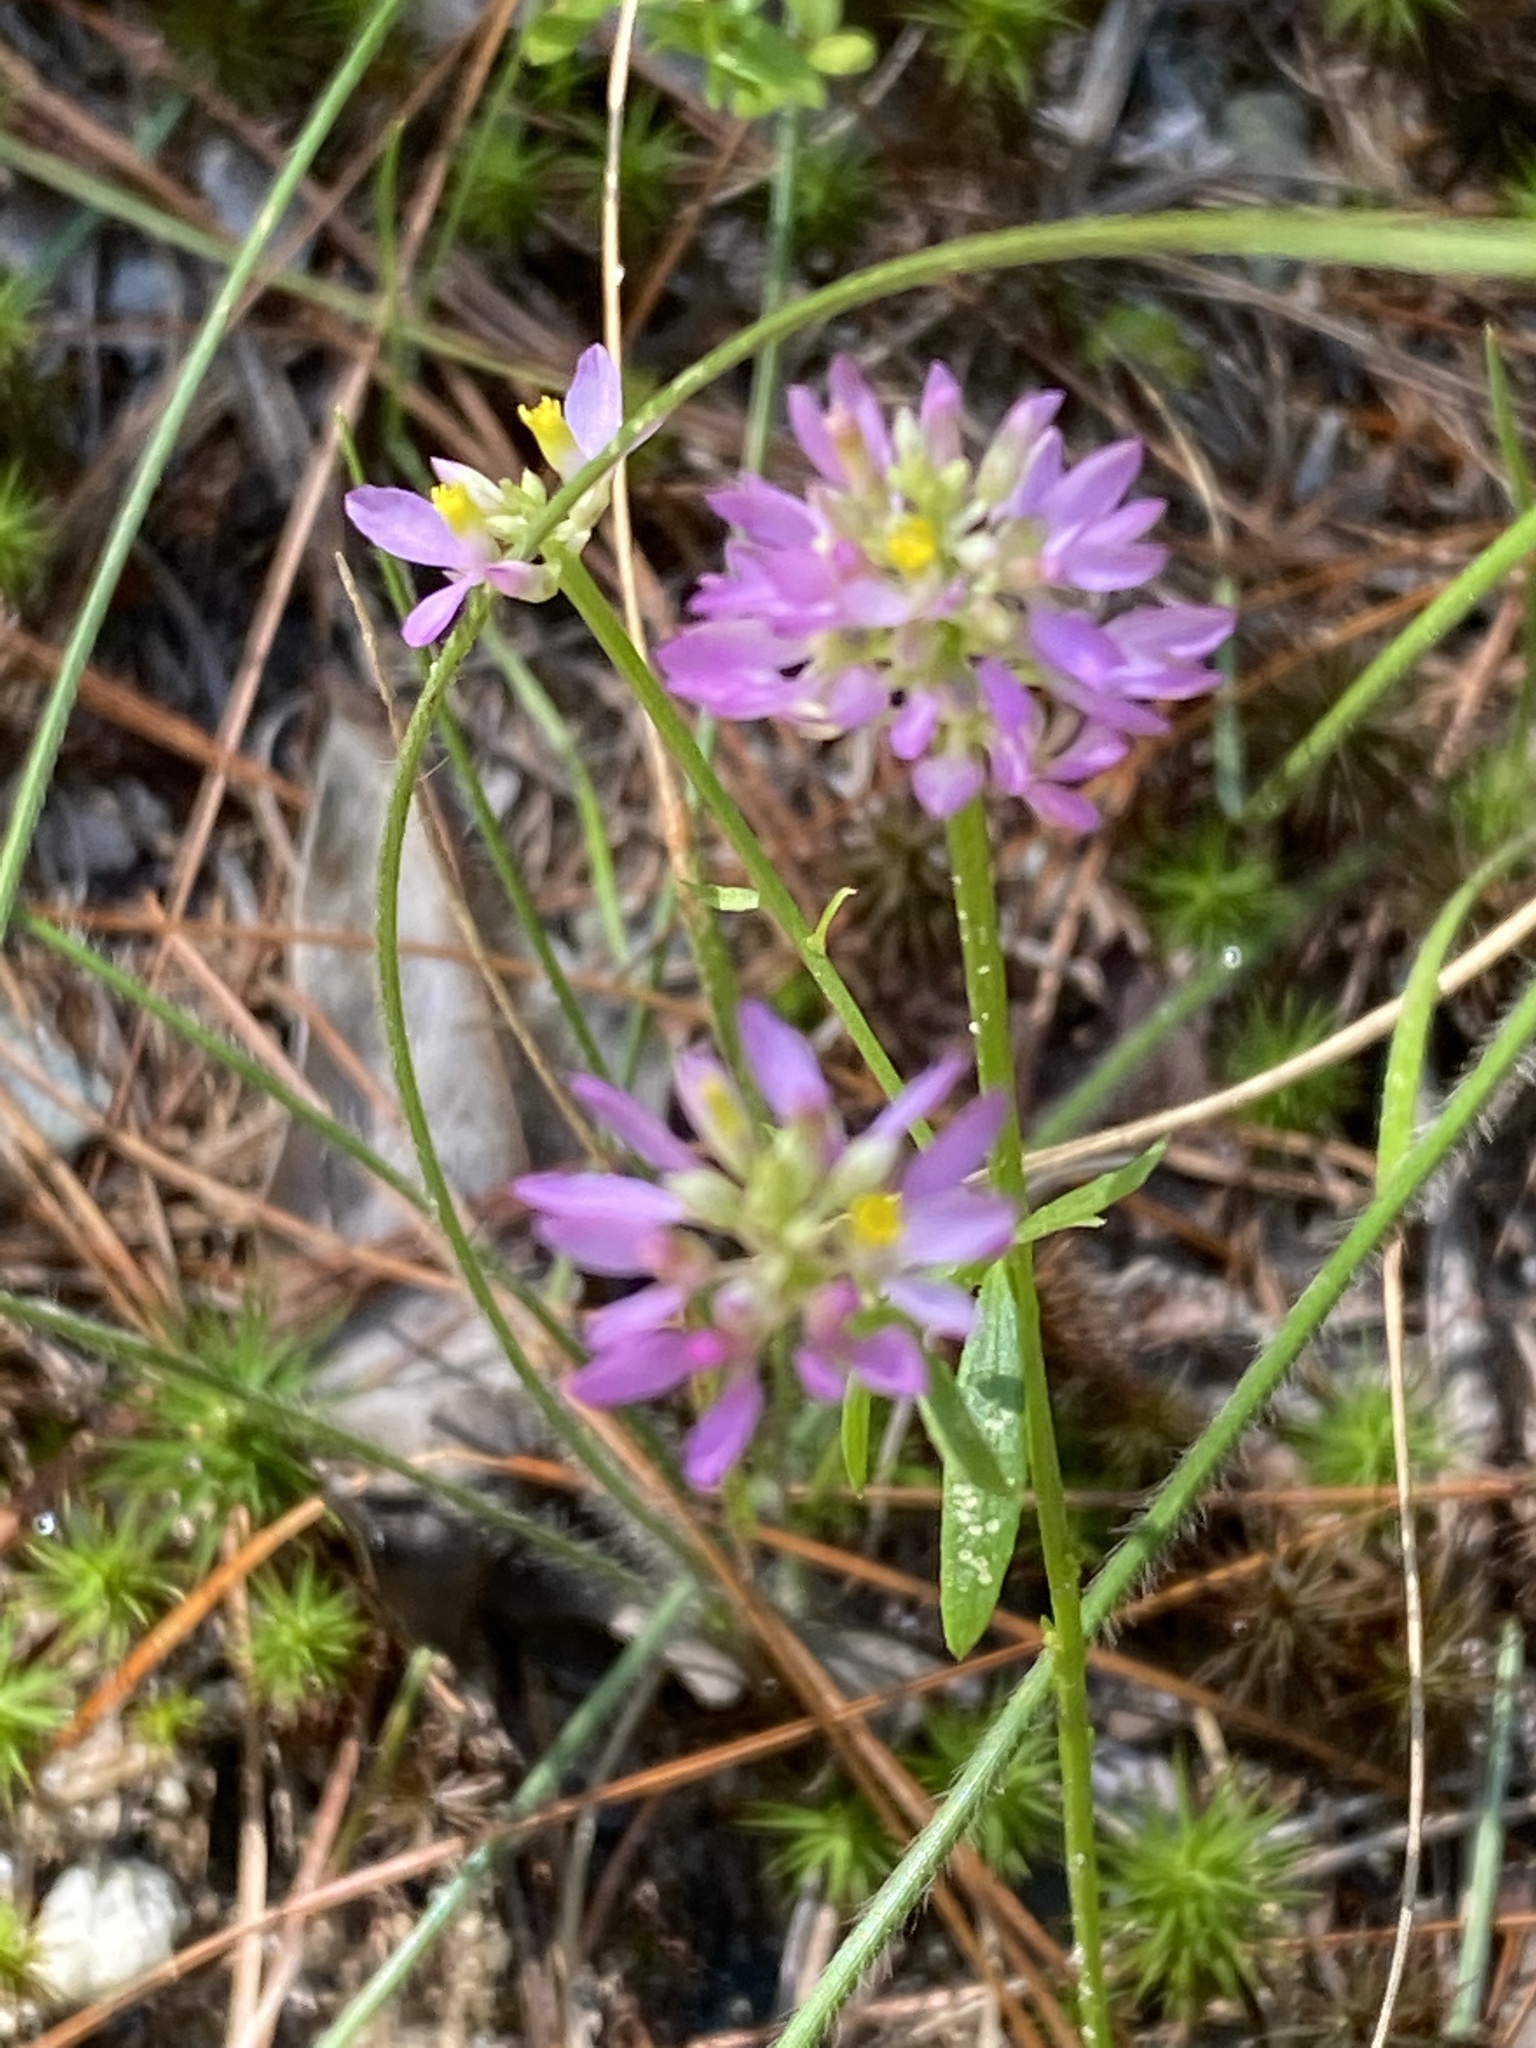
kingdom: Plantae
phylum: Tracheophyta
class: Magnoliopsida
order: Fabales
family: Polygalaceae
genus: Polygala
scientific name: Polygala curtissii
